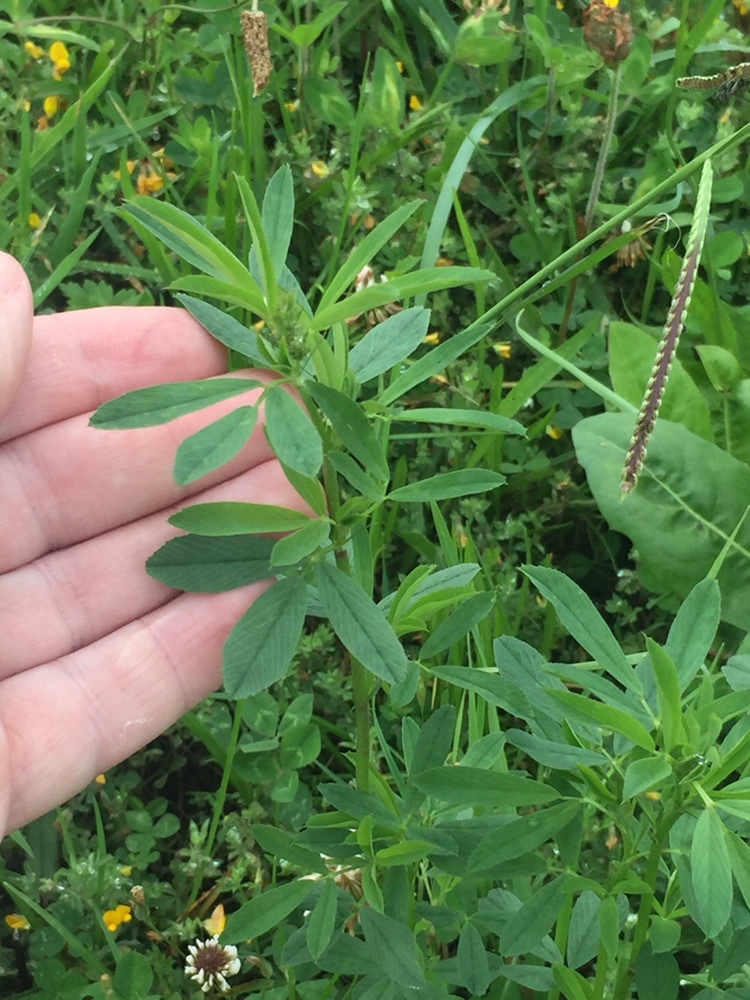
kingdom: Plantae
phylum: Tracheophyta
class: Magnoliopsida
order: Fabales
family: Fabaceae
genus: Medicago
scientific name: Medicago sativa
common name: Alfalfa
